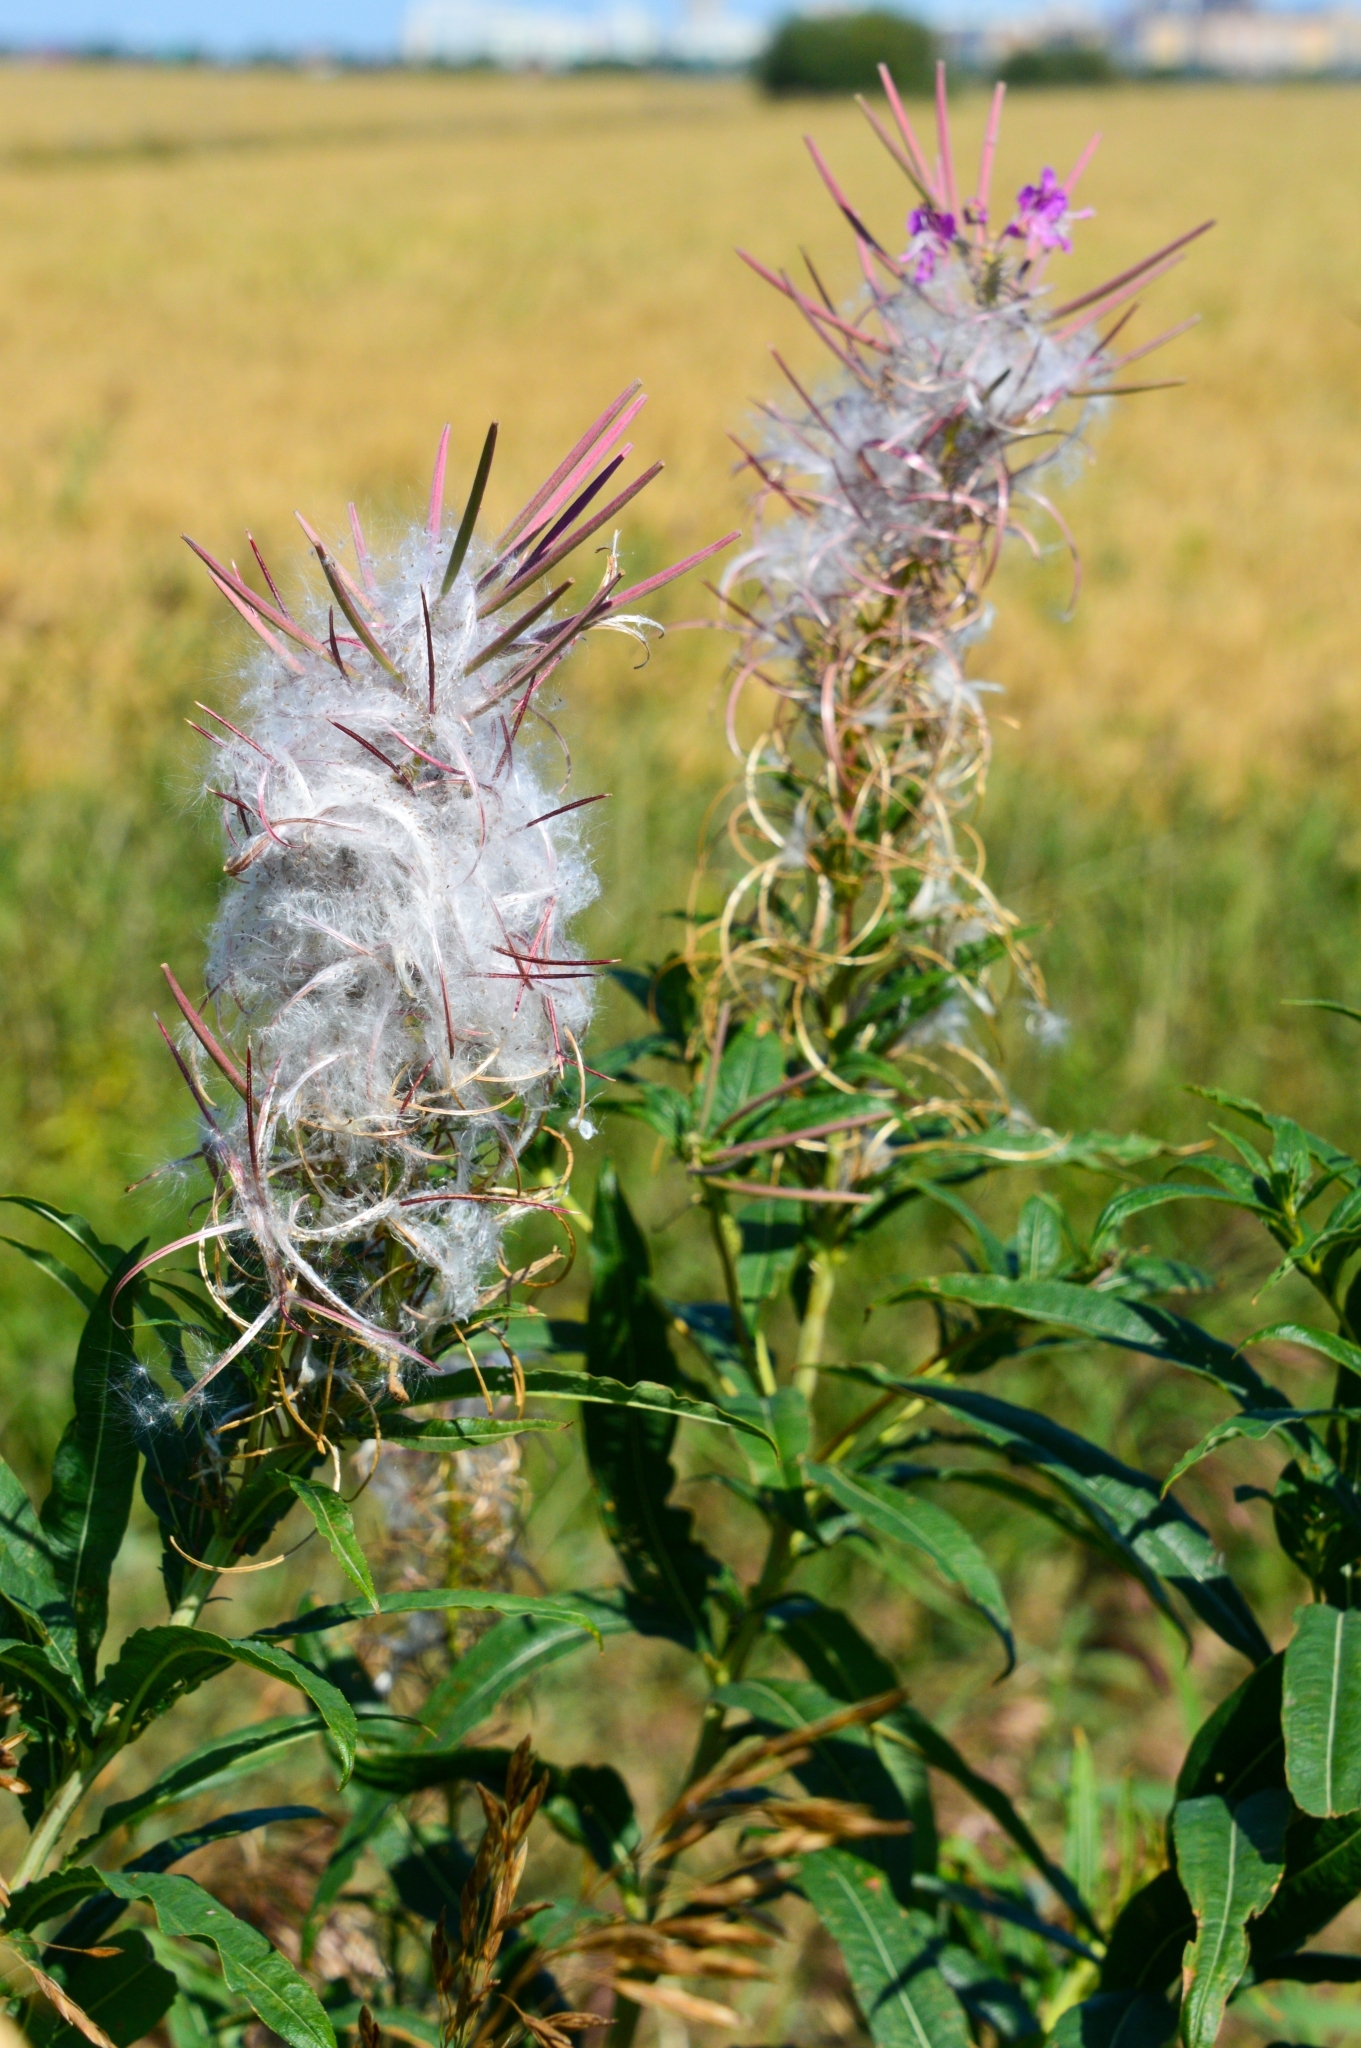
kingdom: Plantae
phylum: Tracheophyta
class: Magnoliopsida
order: Myrtales
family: Onagraceae
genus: Chamaenerion
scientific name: Chamaenerion angustifolium
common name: Fireweed
